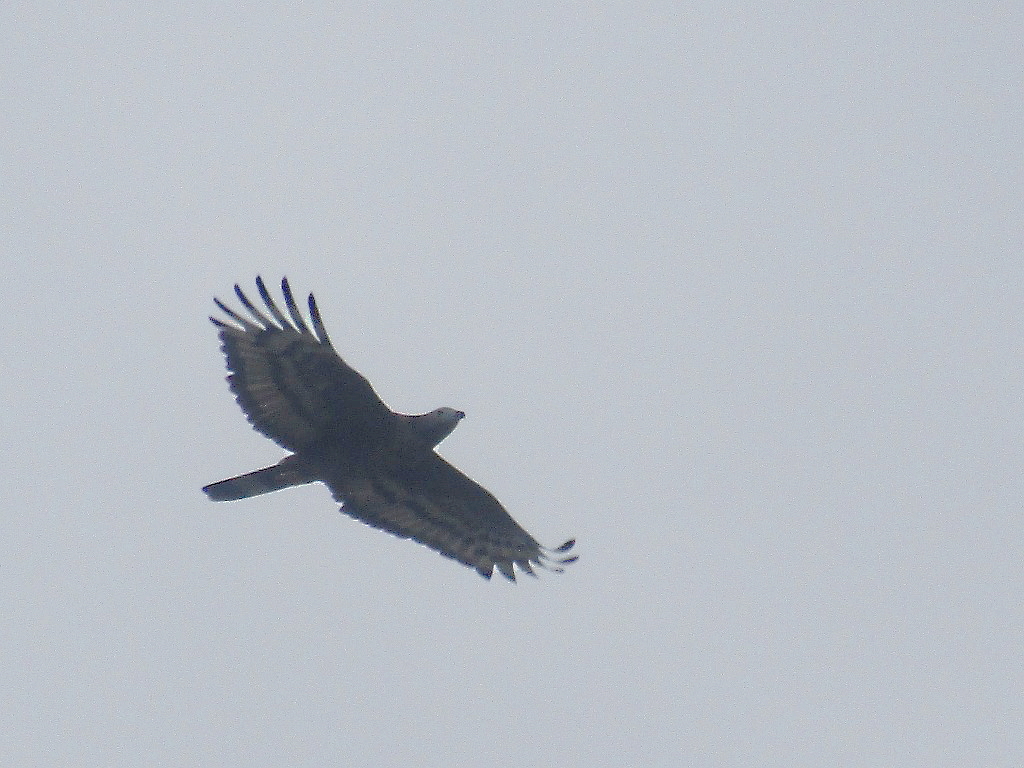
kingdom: Animalia
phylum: Chordata
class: Aves
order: Accipitriformes
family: Accipitridae
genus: Pernis
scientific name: Pernis ptilorhynchus
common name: Crested honey buzzard
